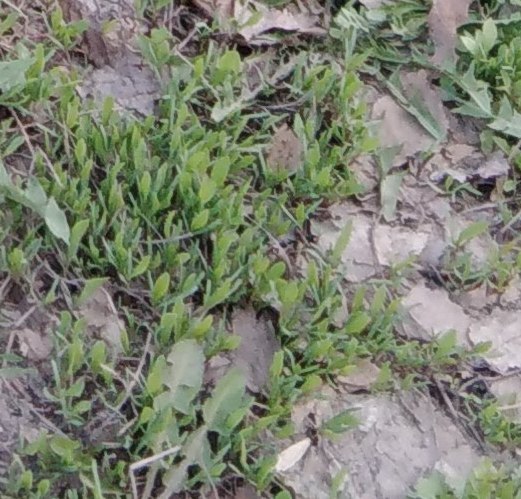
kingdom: Plantae
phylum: Tracheophyta
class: Magnoliopsida
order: Caryophyllales
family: Polygonaceae
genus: Polygonum
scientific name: Polygonum
